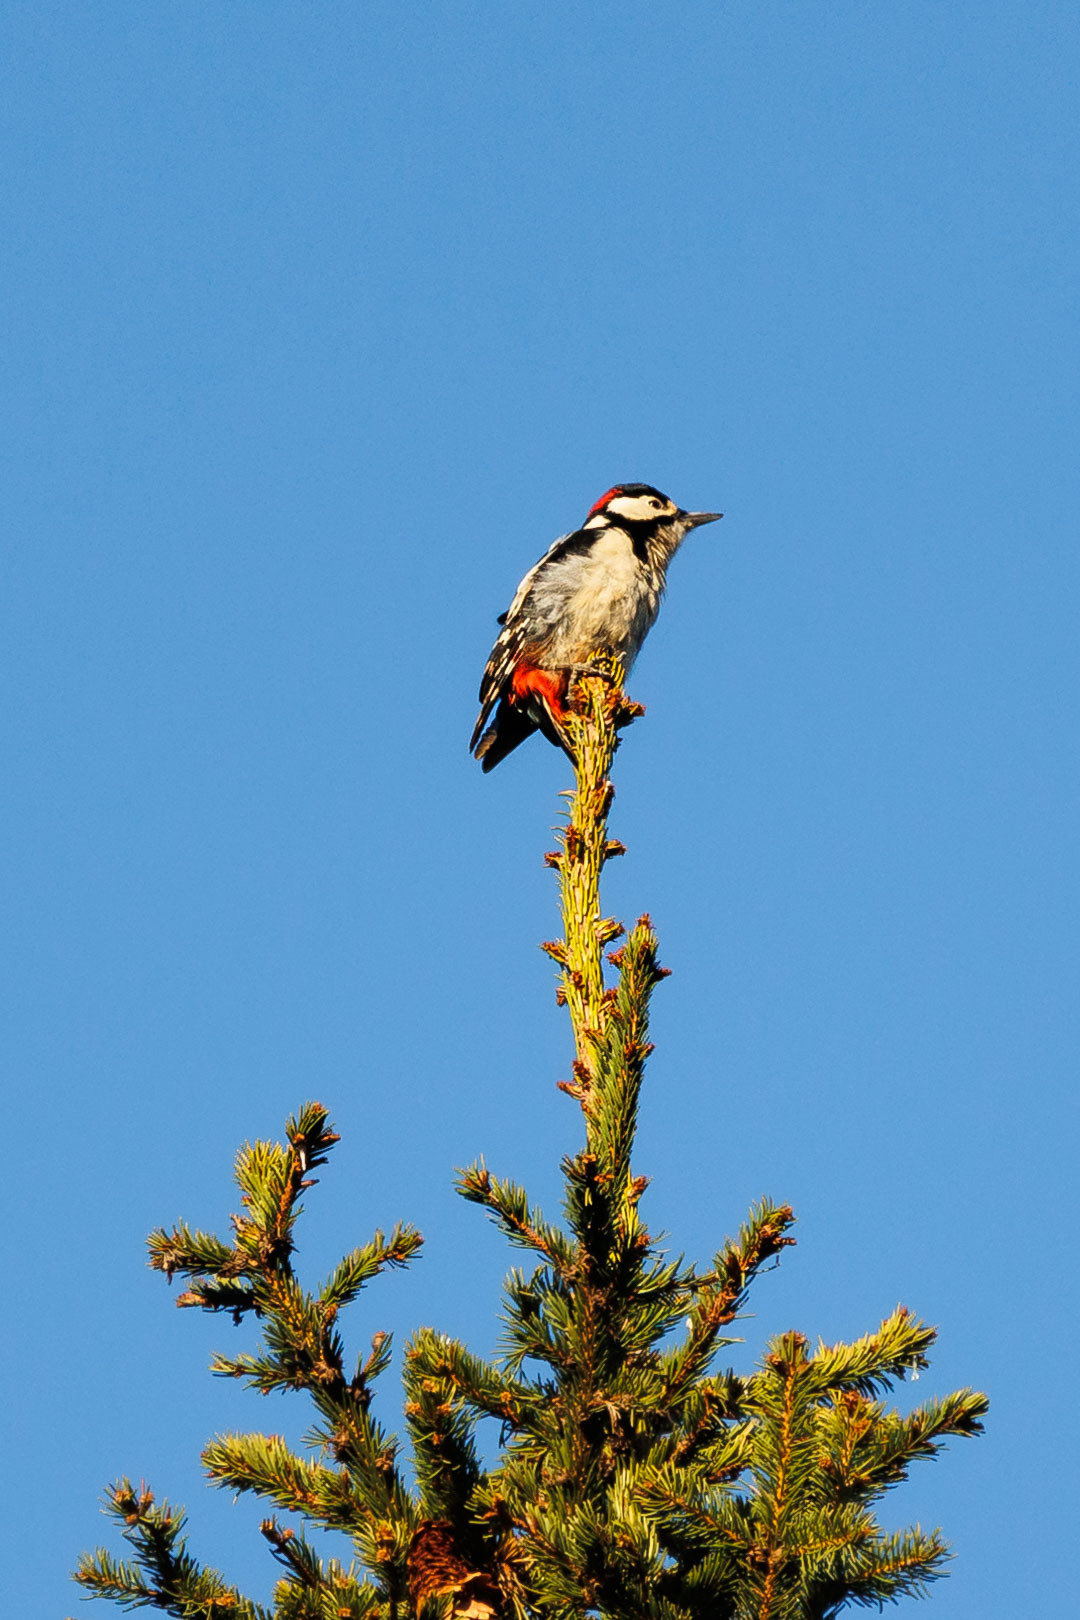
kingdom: Animalia
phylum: Chordata
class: Aves
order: Piciformes
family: Picidae
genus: Dendrocopos
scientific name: Dendrocopos major
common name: Great spotted woodpecker
